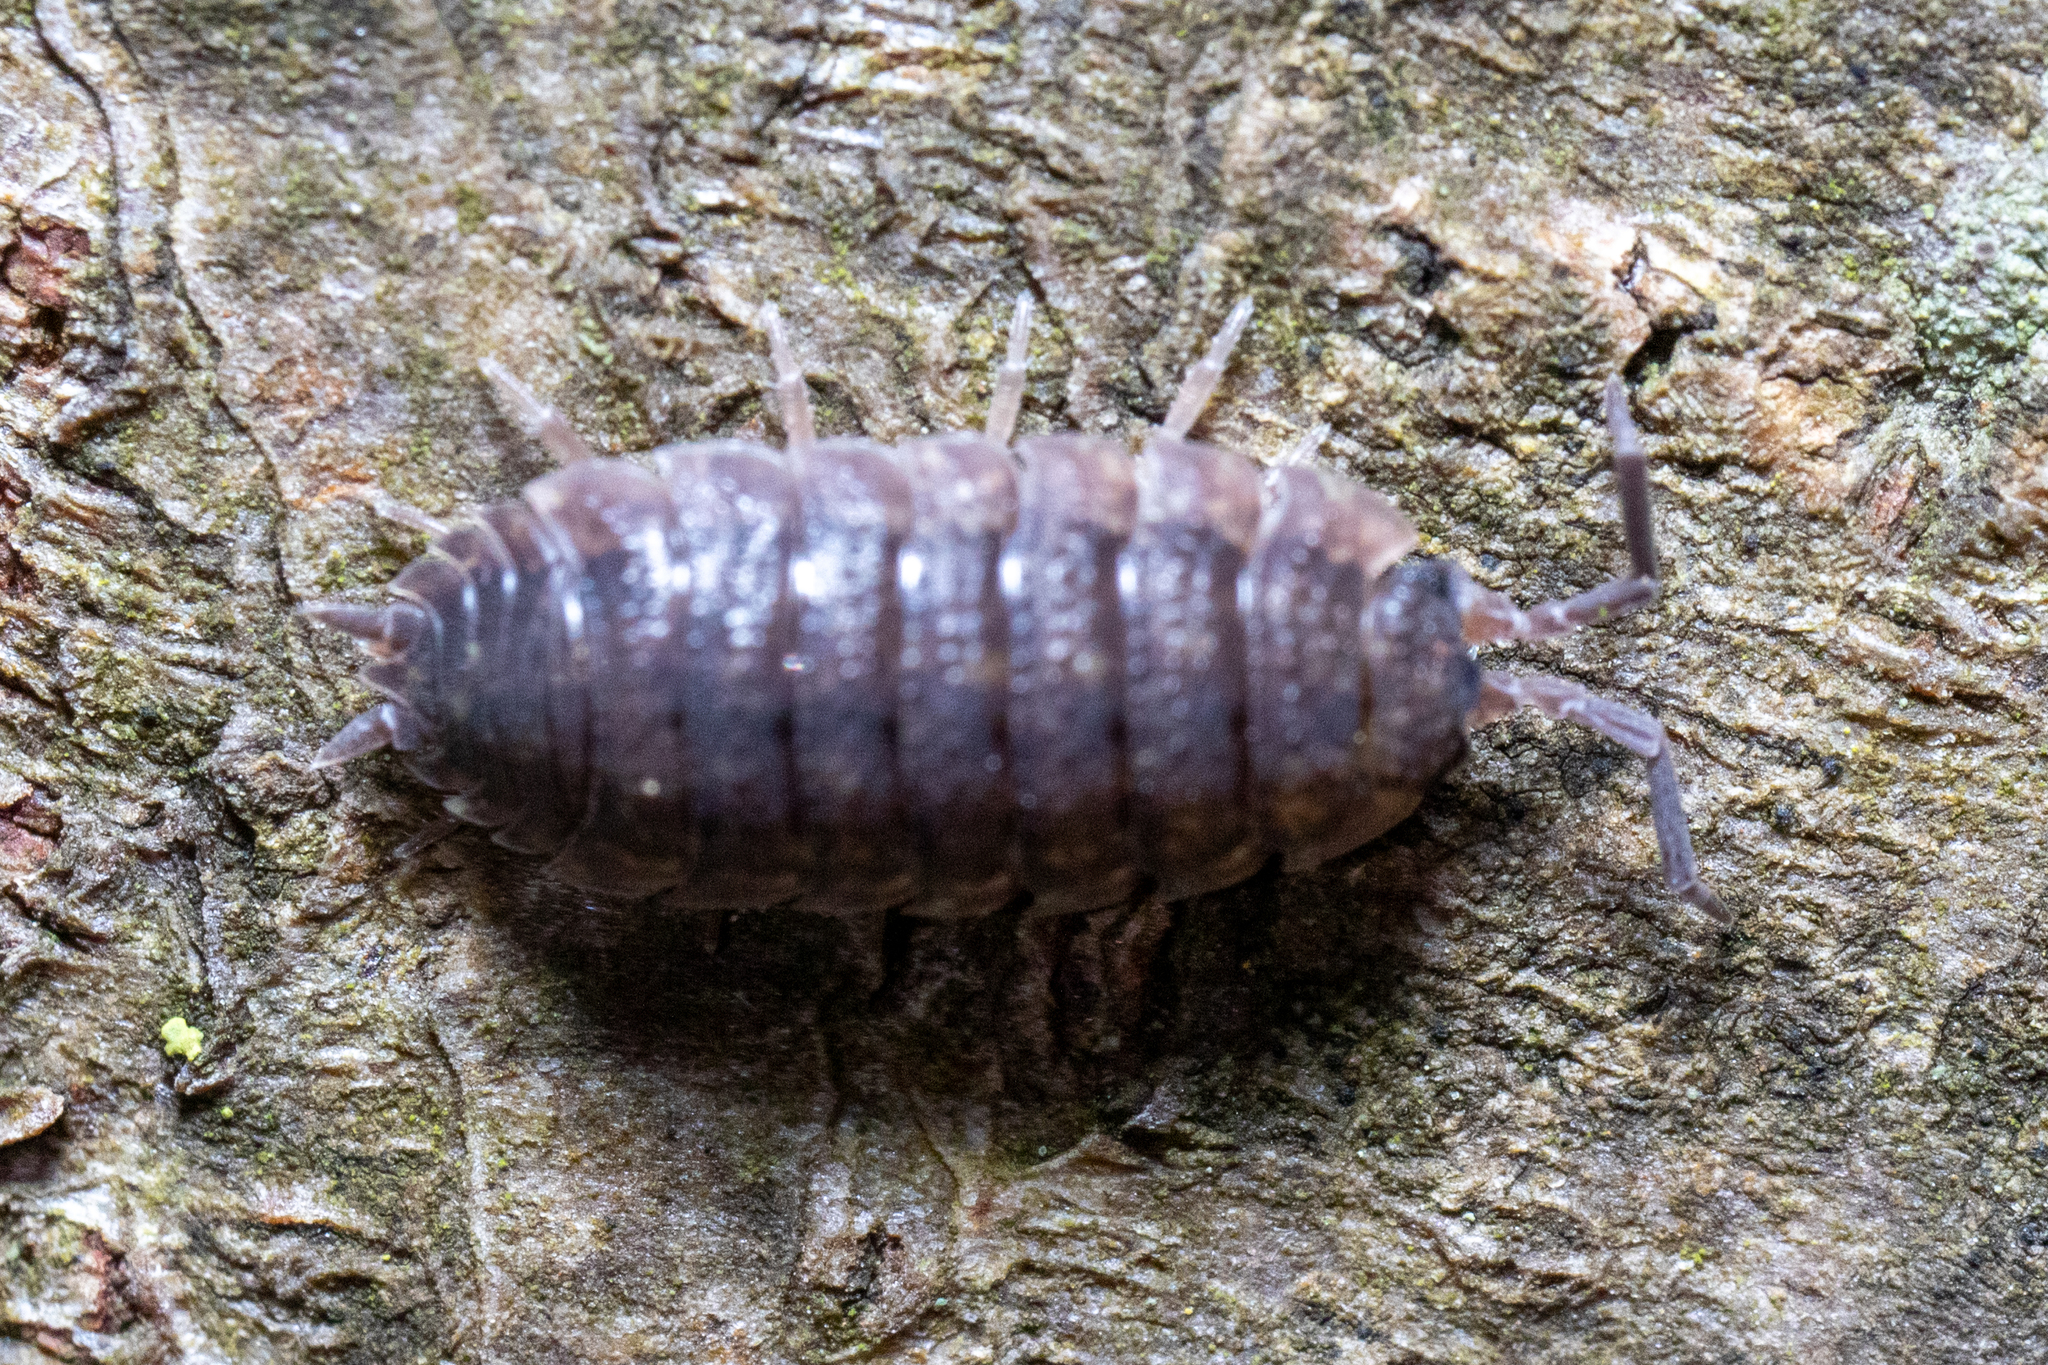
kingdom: Animalia
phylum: Arthropoda
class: Malacostraca
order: Isopoda
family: Porcellionidae
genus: Porcellio
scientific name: Porcellio scaber
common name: Common rough woodlouse
